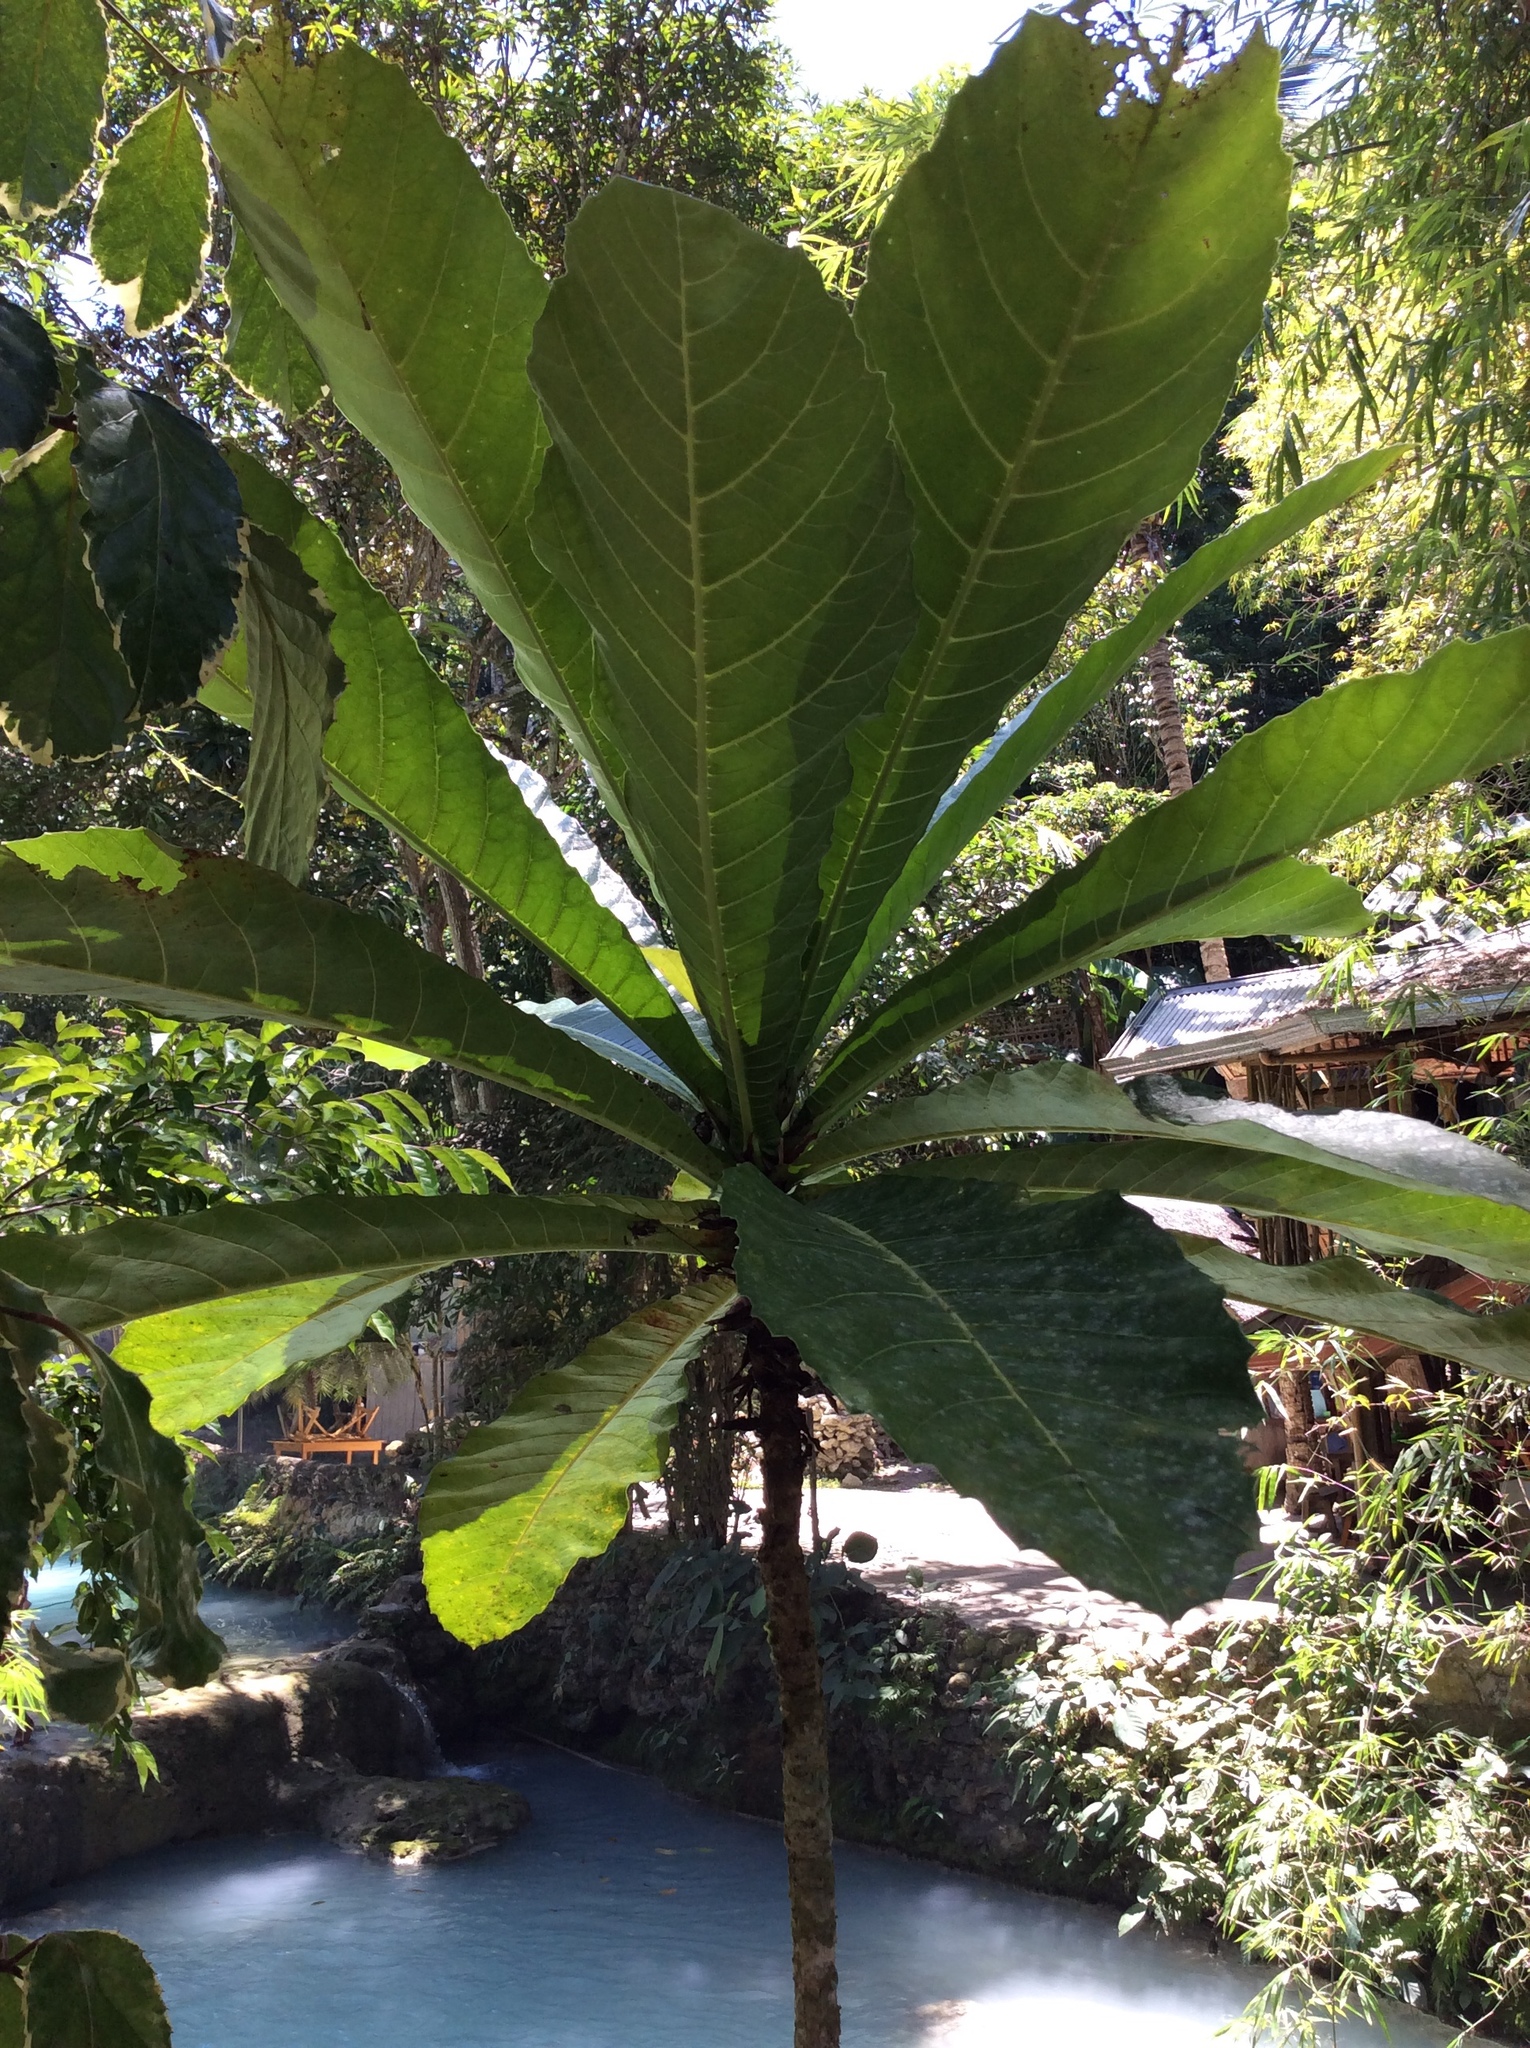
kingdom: Plantae
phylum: Tracheophyta
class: Magnoliopsida
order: Rosales
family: Moraceae
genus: Ficus
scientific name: Ficus pseudopalma
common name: Palm-like fig
